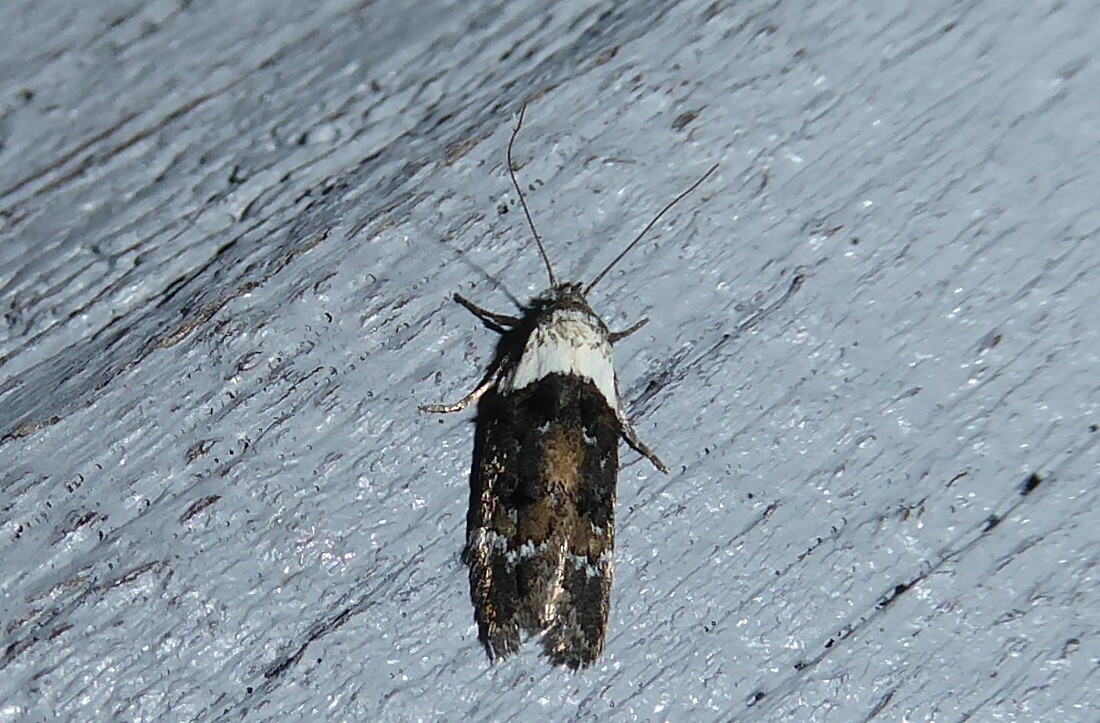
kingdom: Animalia
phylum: Arthropoda
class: Insecta
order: Lepidoptera
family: Oecophoridae
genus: Trachypepla
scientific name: Trachypepla conspicuella
